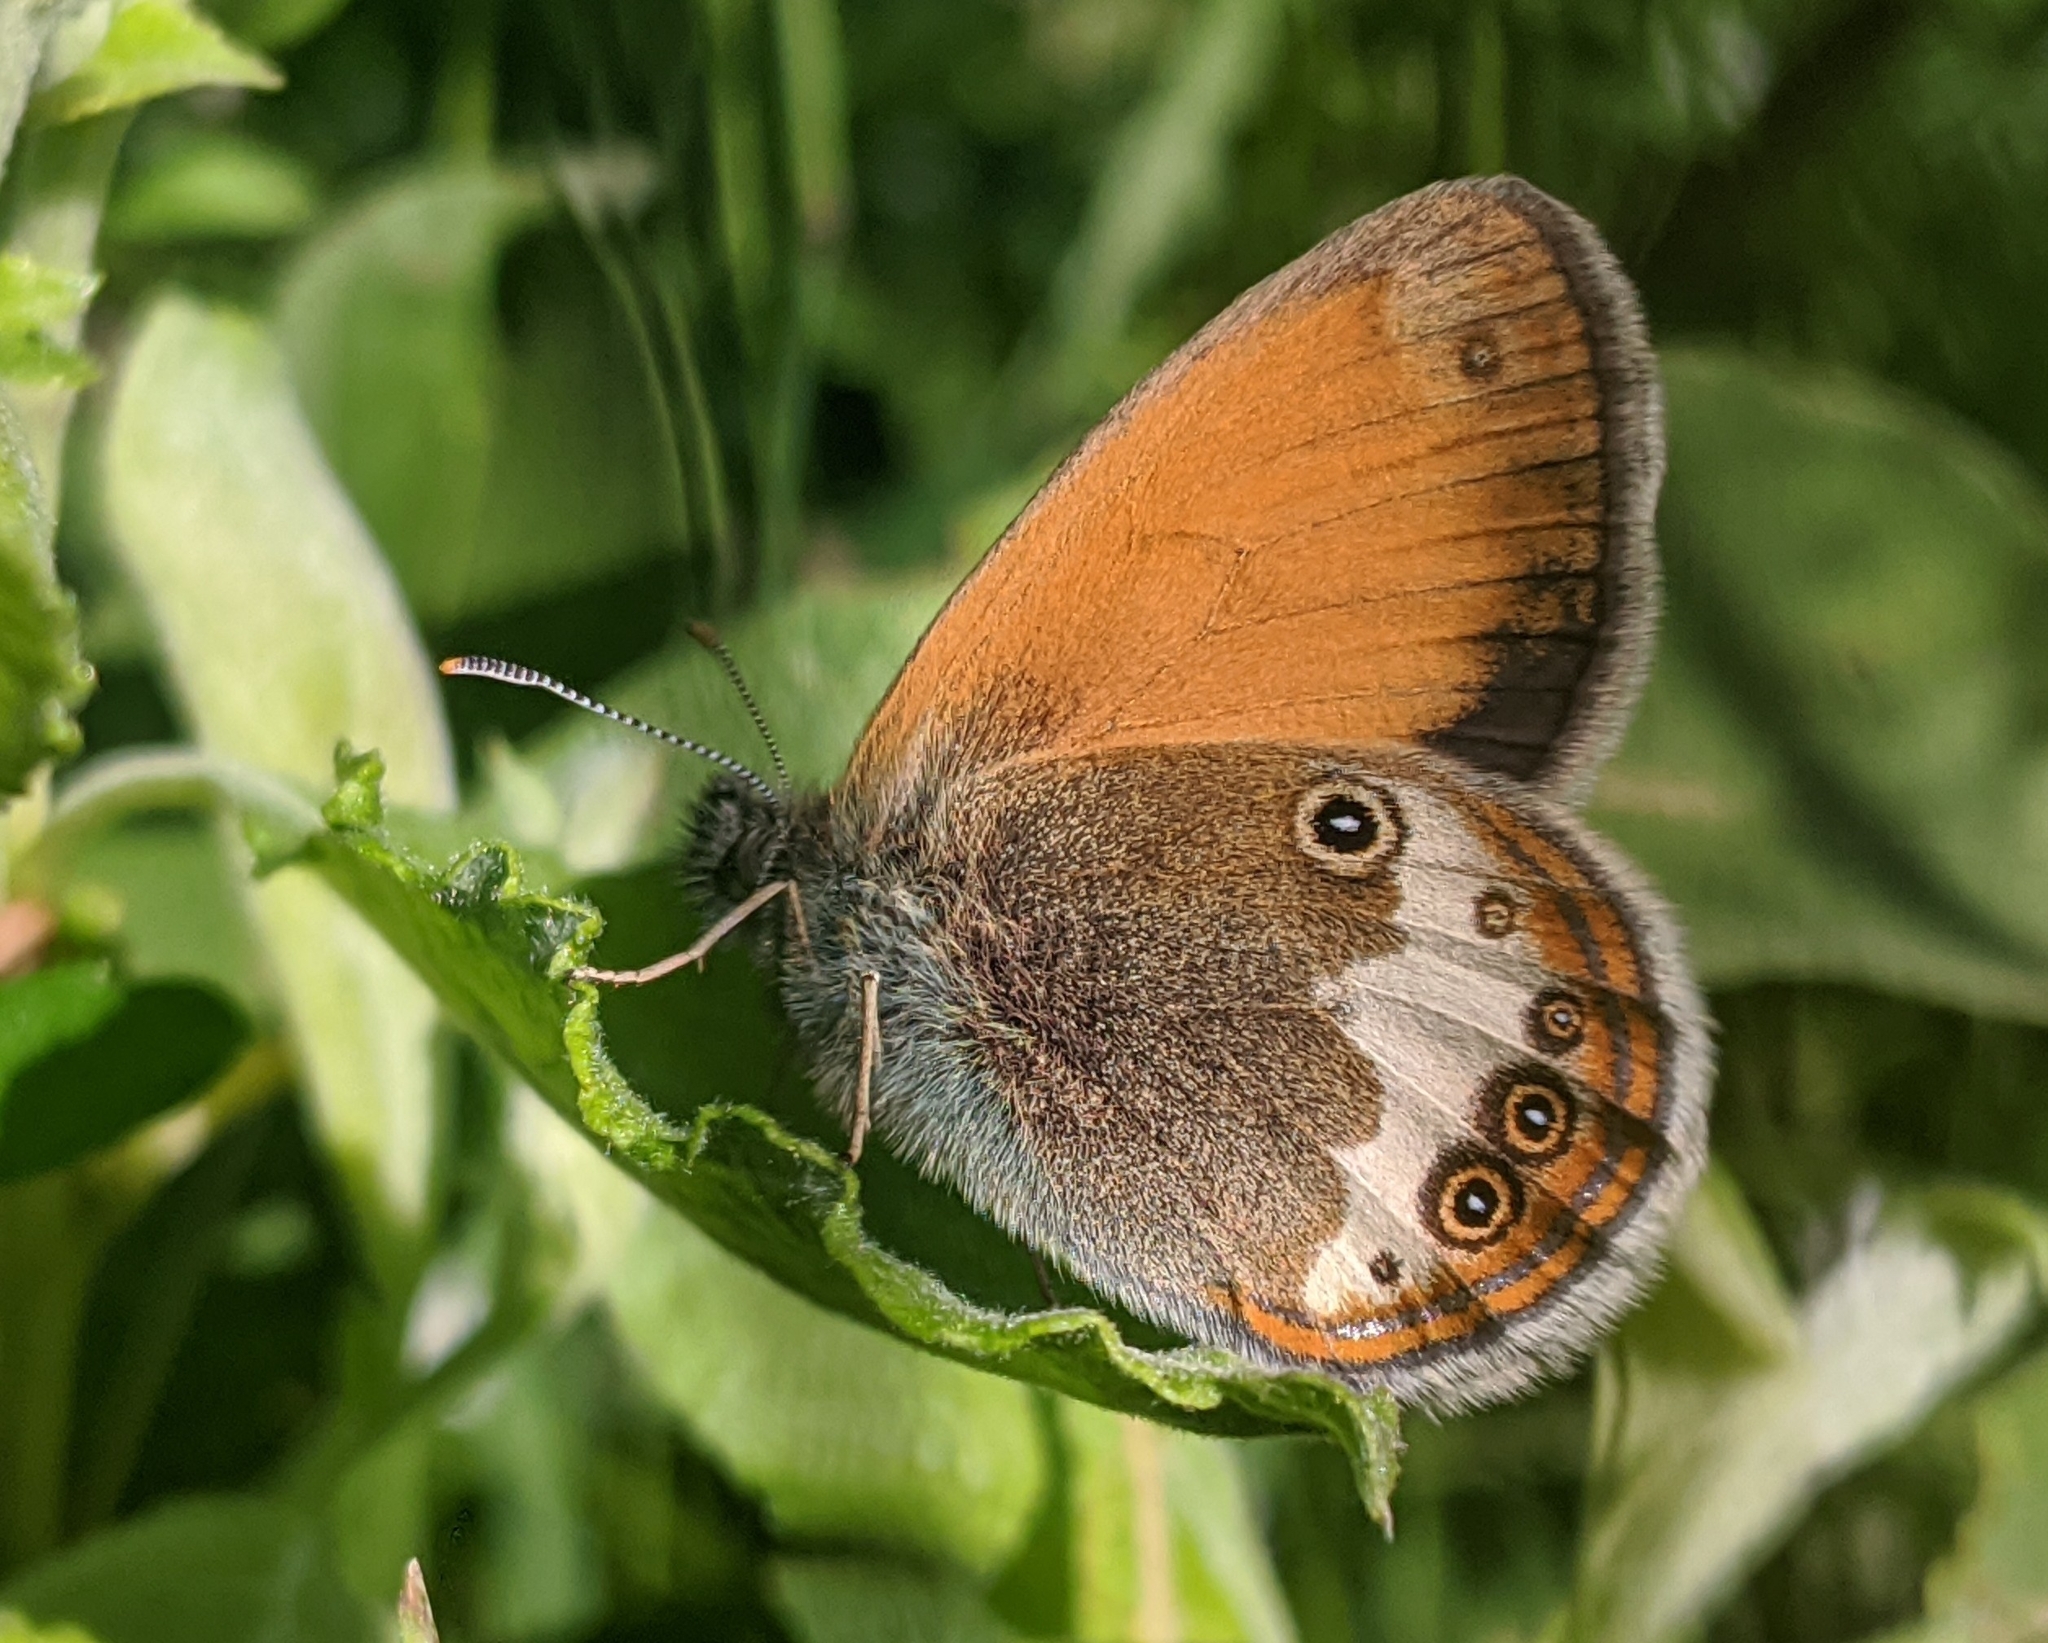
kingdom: Animalia
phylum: Arthropoda
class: Insecta
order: Lepidoptera
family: Nymphalidae
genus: Coenonympha
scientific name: Coenonympha arcania
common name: Pearly heath
